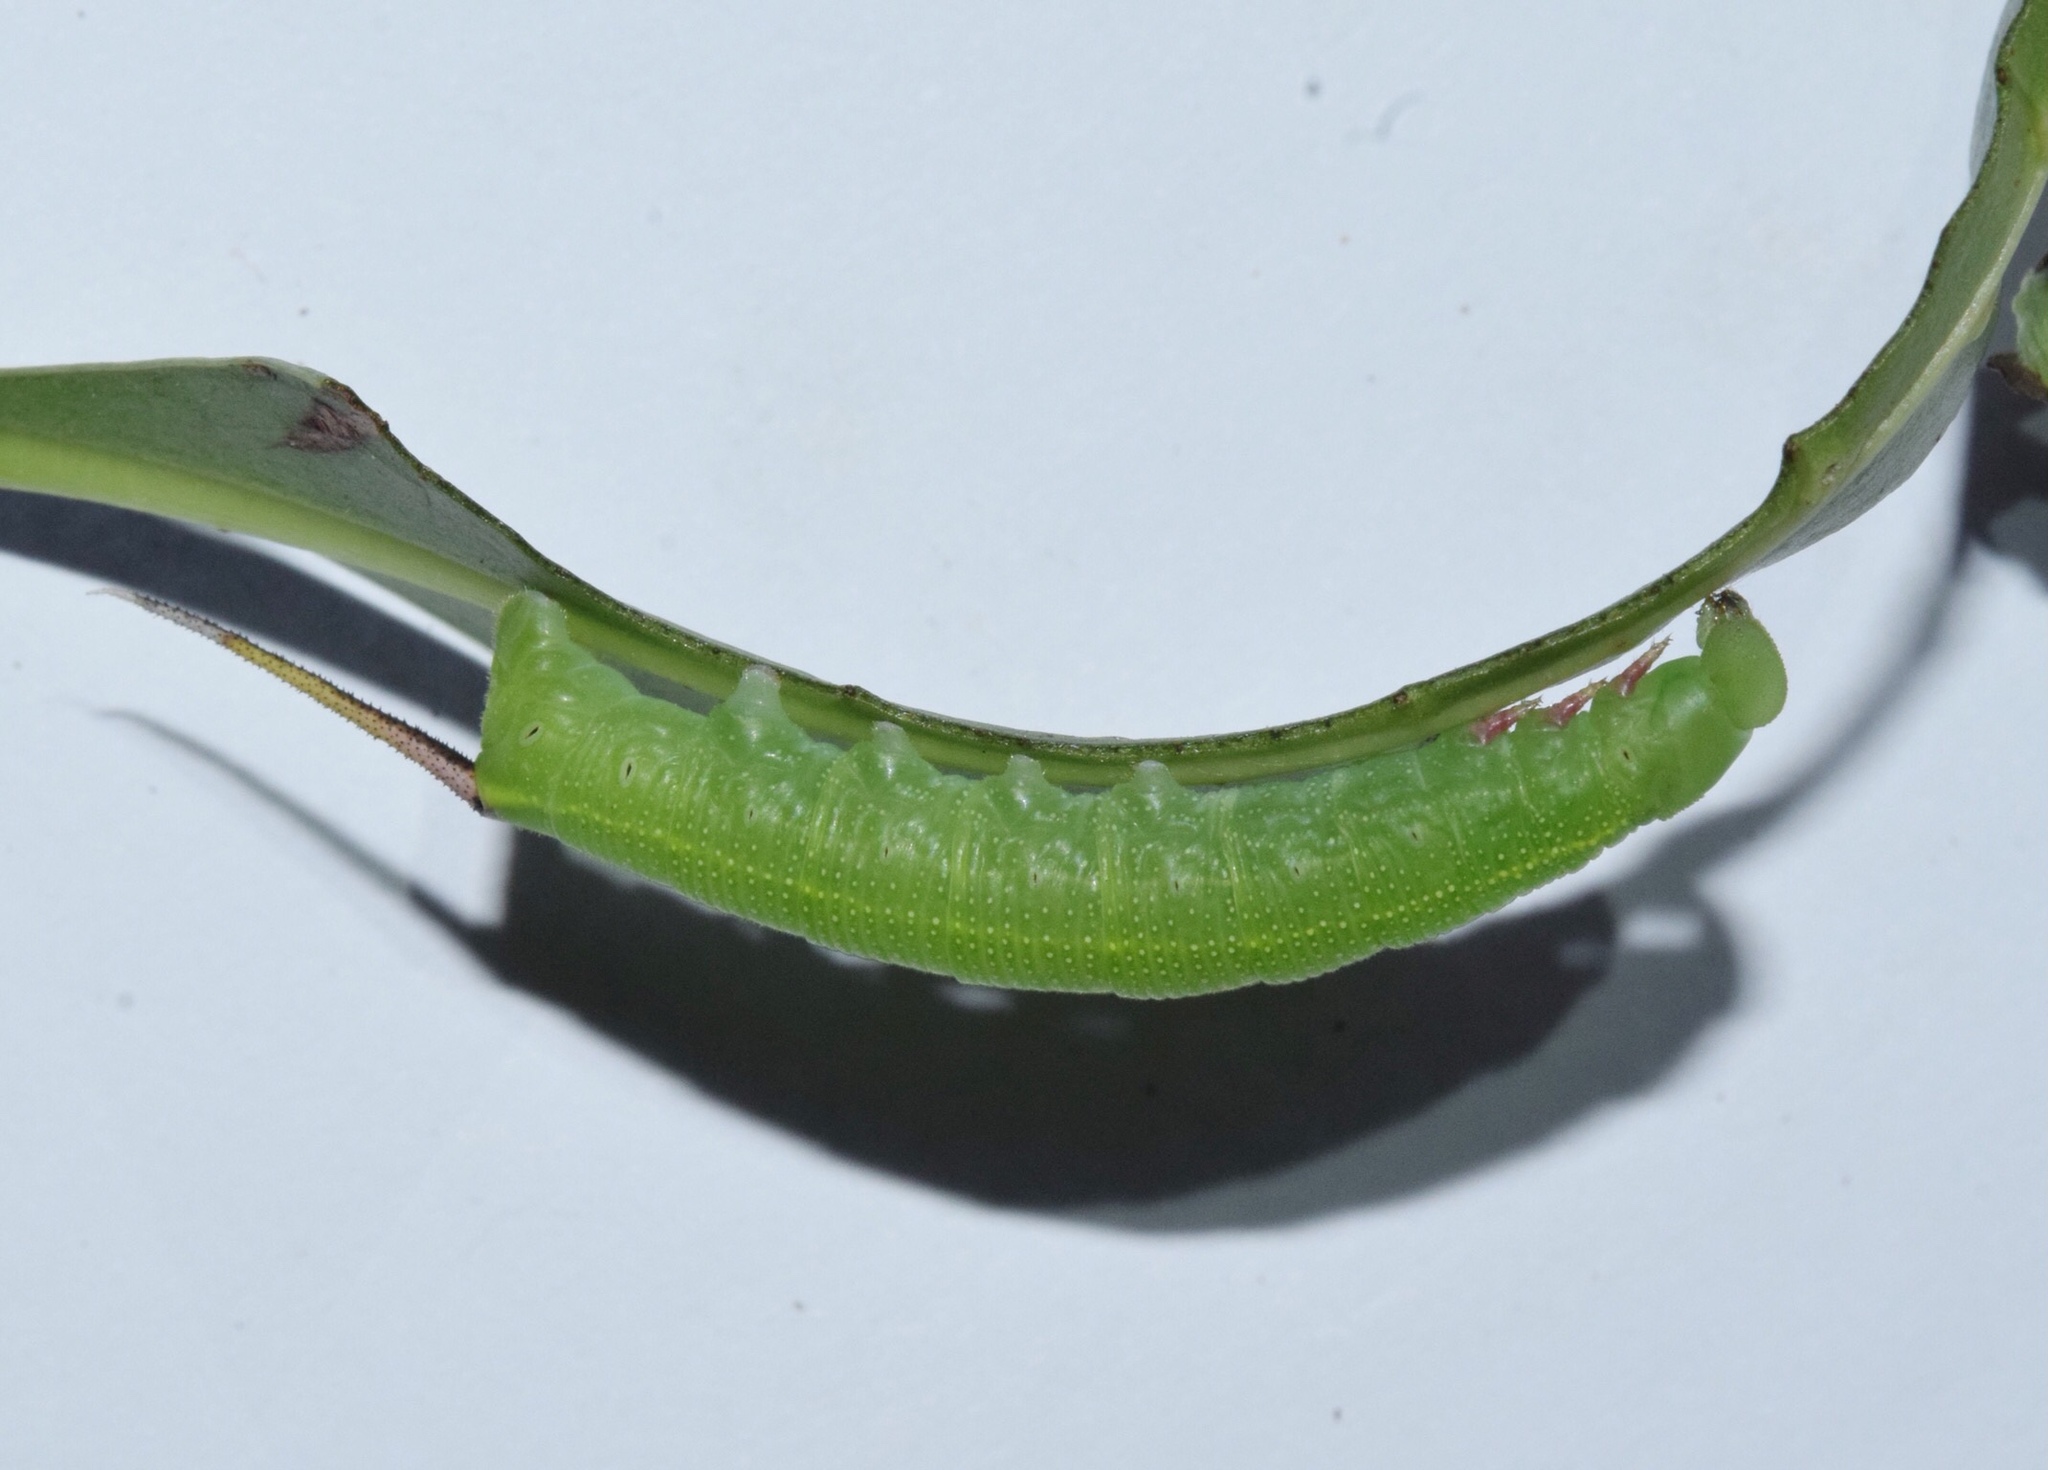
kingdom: Animalia
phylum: Arthropoda
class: Insecta
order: Lepidoptera
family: Sphingidae
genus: Temnora
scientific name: Temnora marginata
